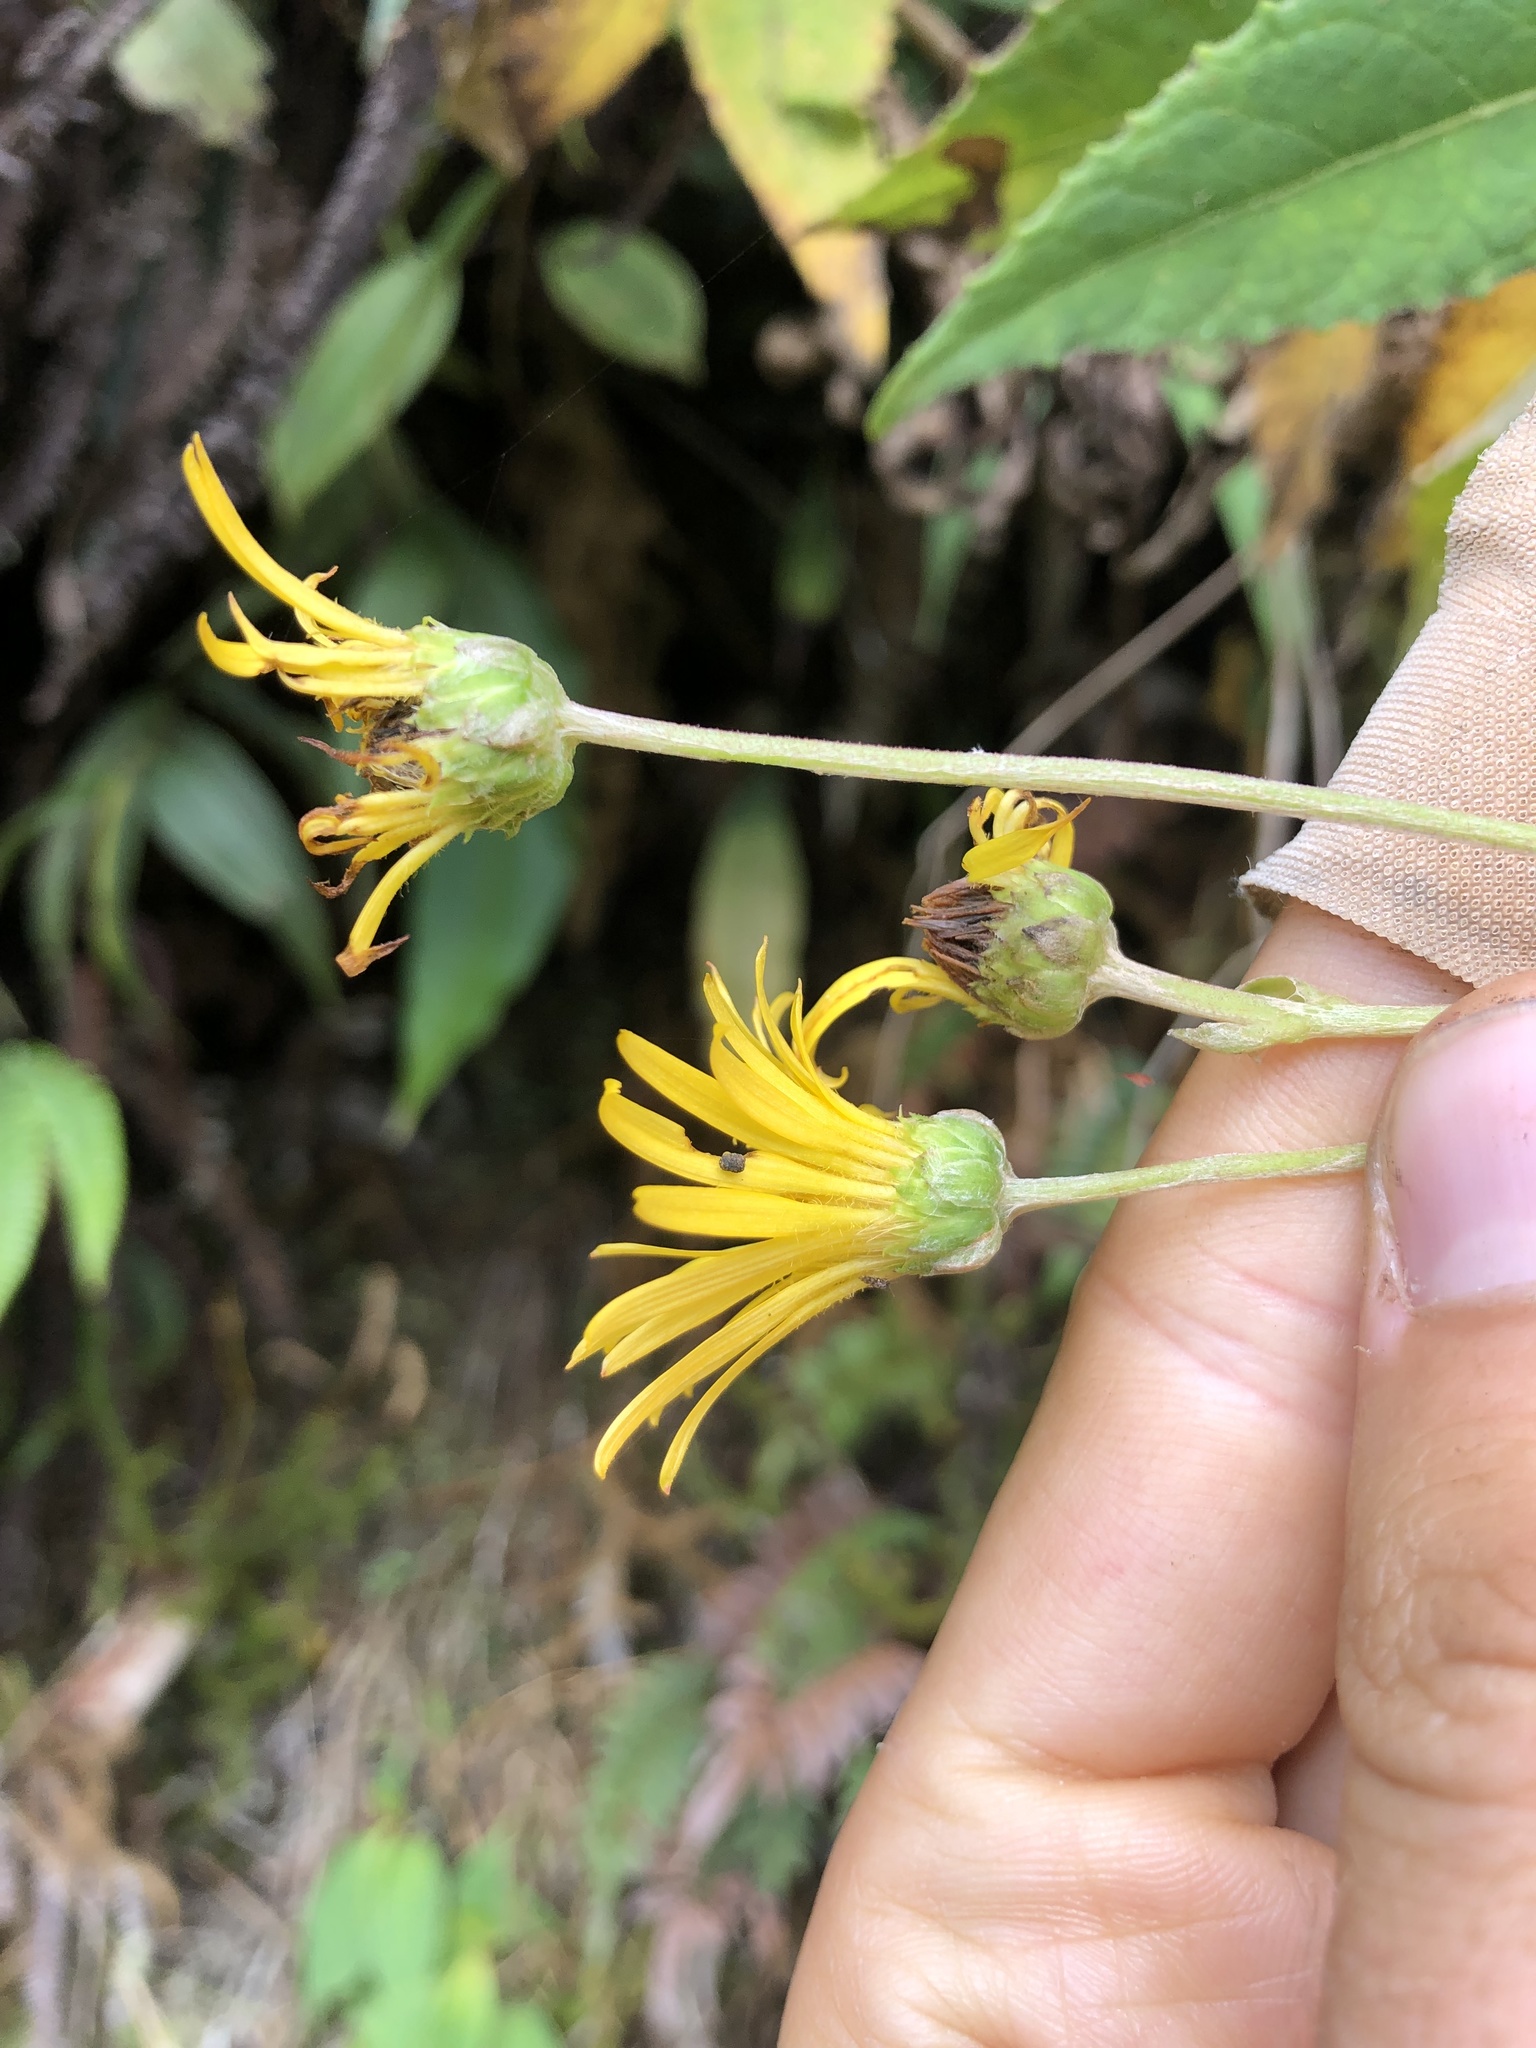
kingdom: Plantae
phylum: Tracheophyta
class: Magnoliopsida
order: Asterales
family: Asteraceae
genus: Munnozia
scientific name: Munnozia senecionidis
